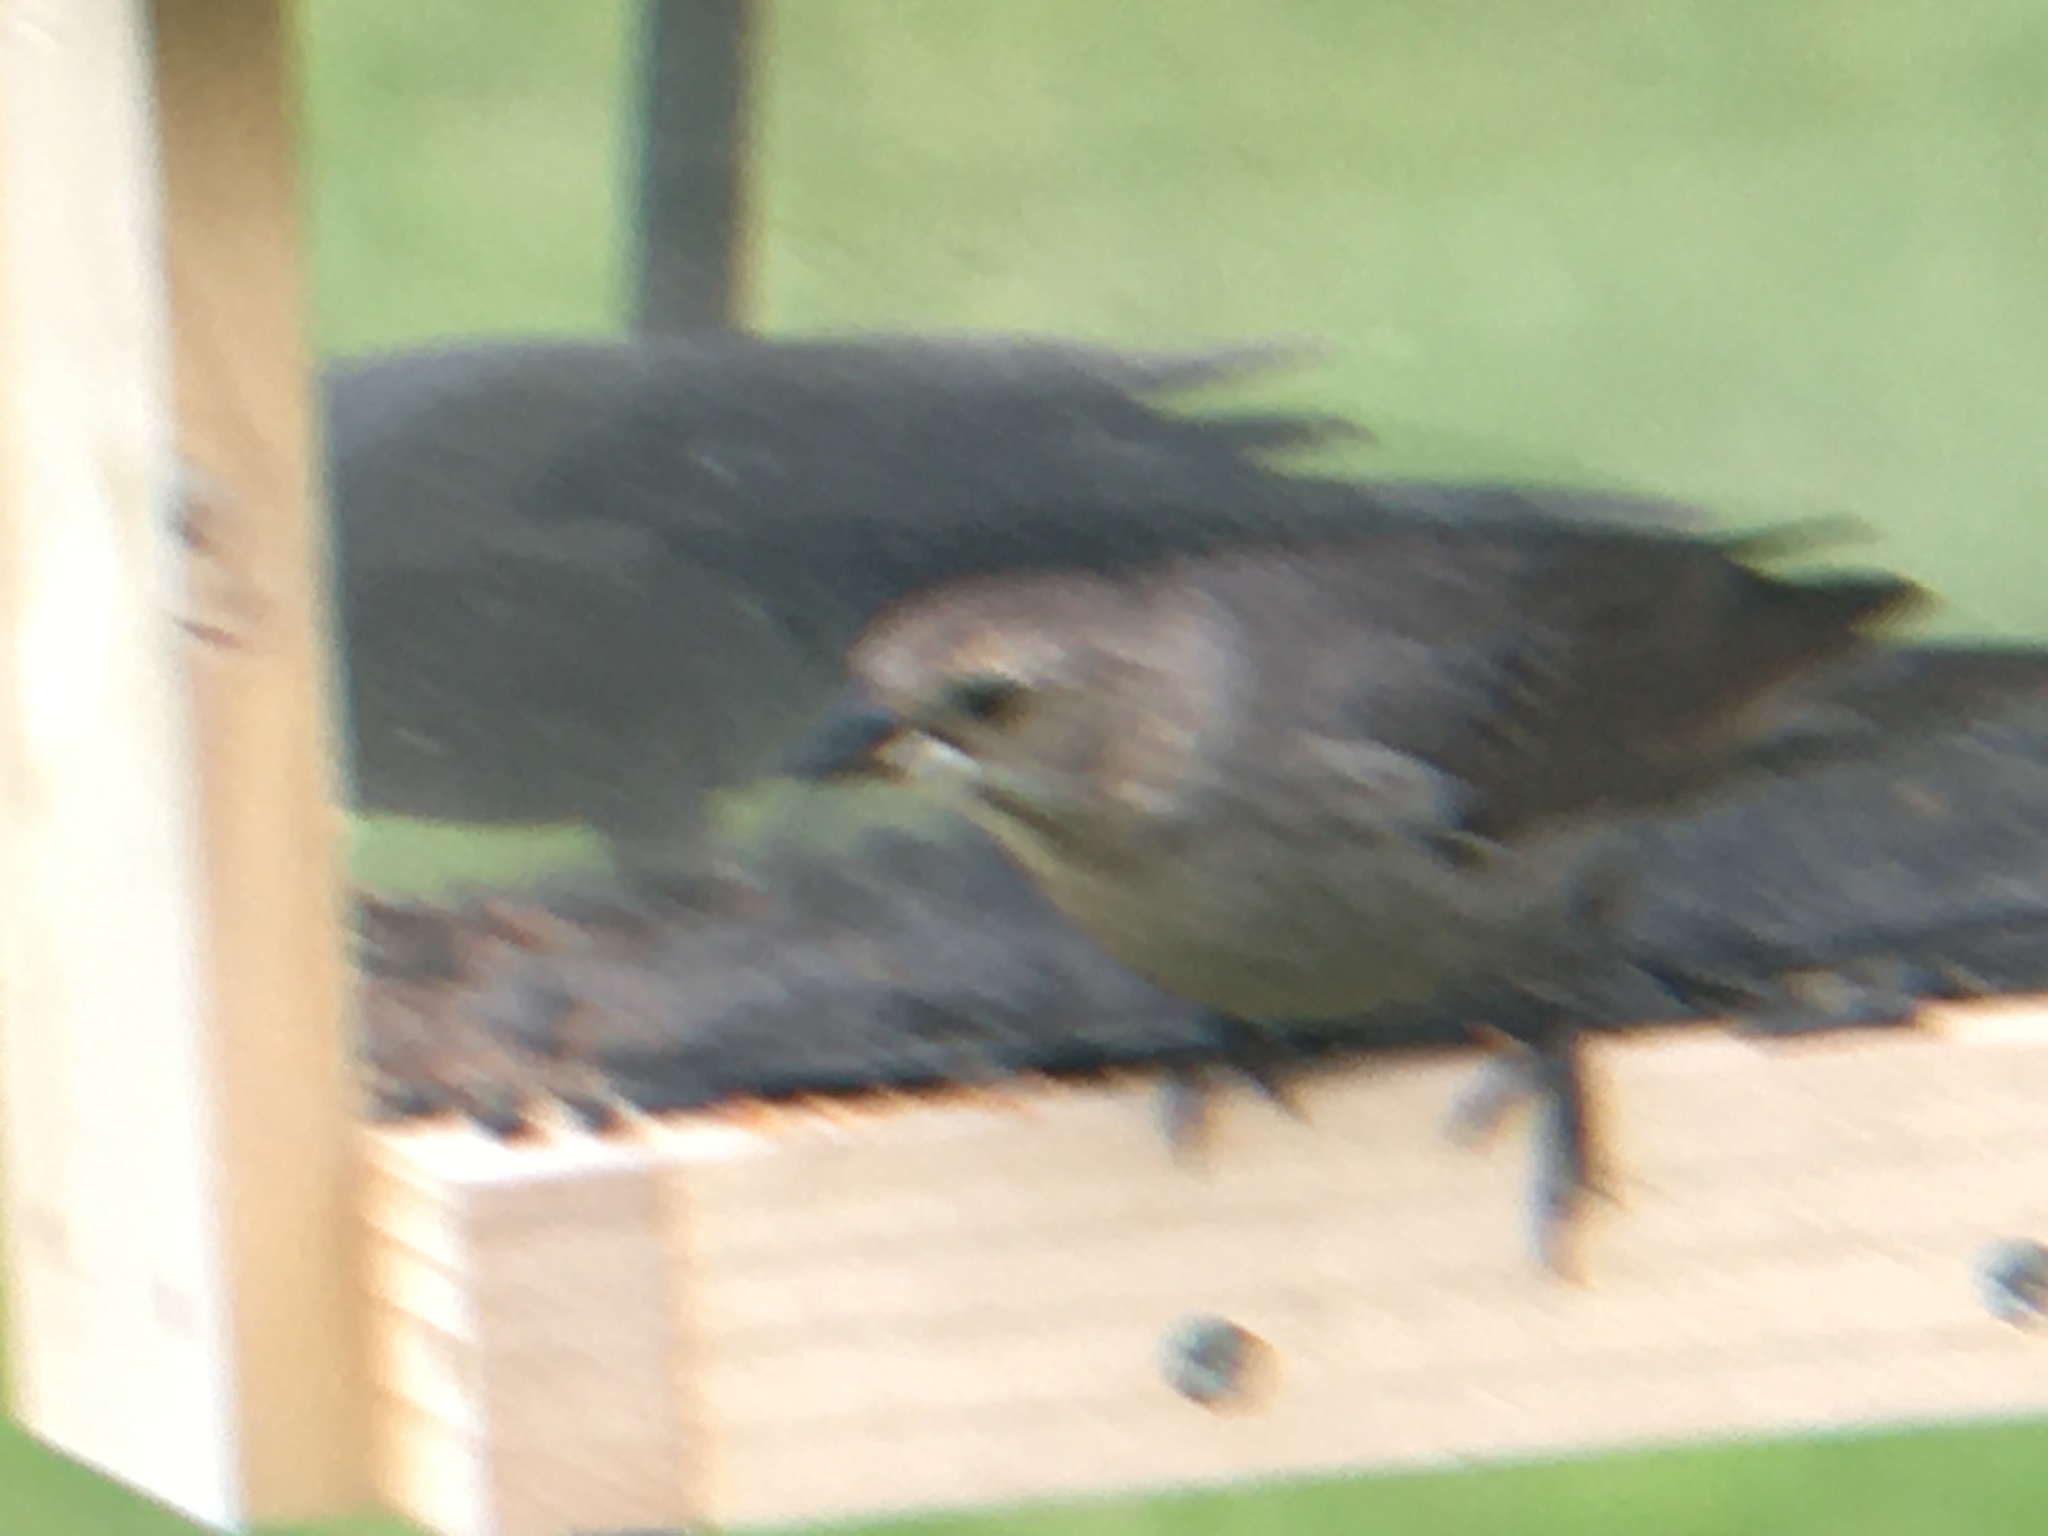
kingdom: Animalia
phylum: Chordata
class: Aves
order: Passeriformes
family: Icteridae
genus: Molothrus
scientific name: Molothrus ater
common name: Brown-headed cowbird
